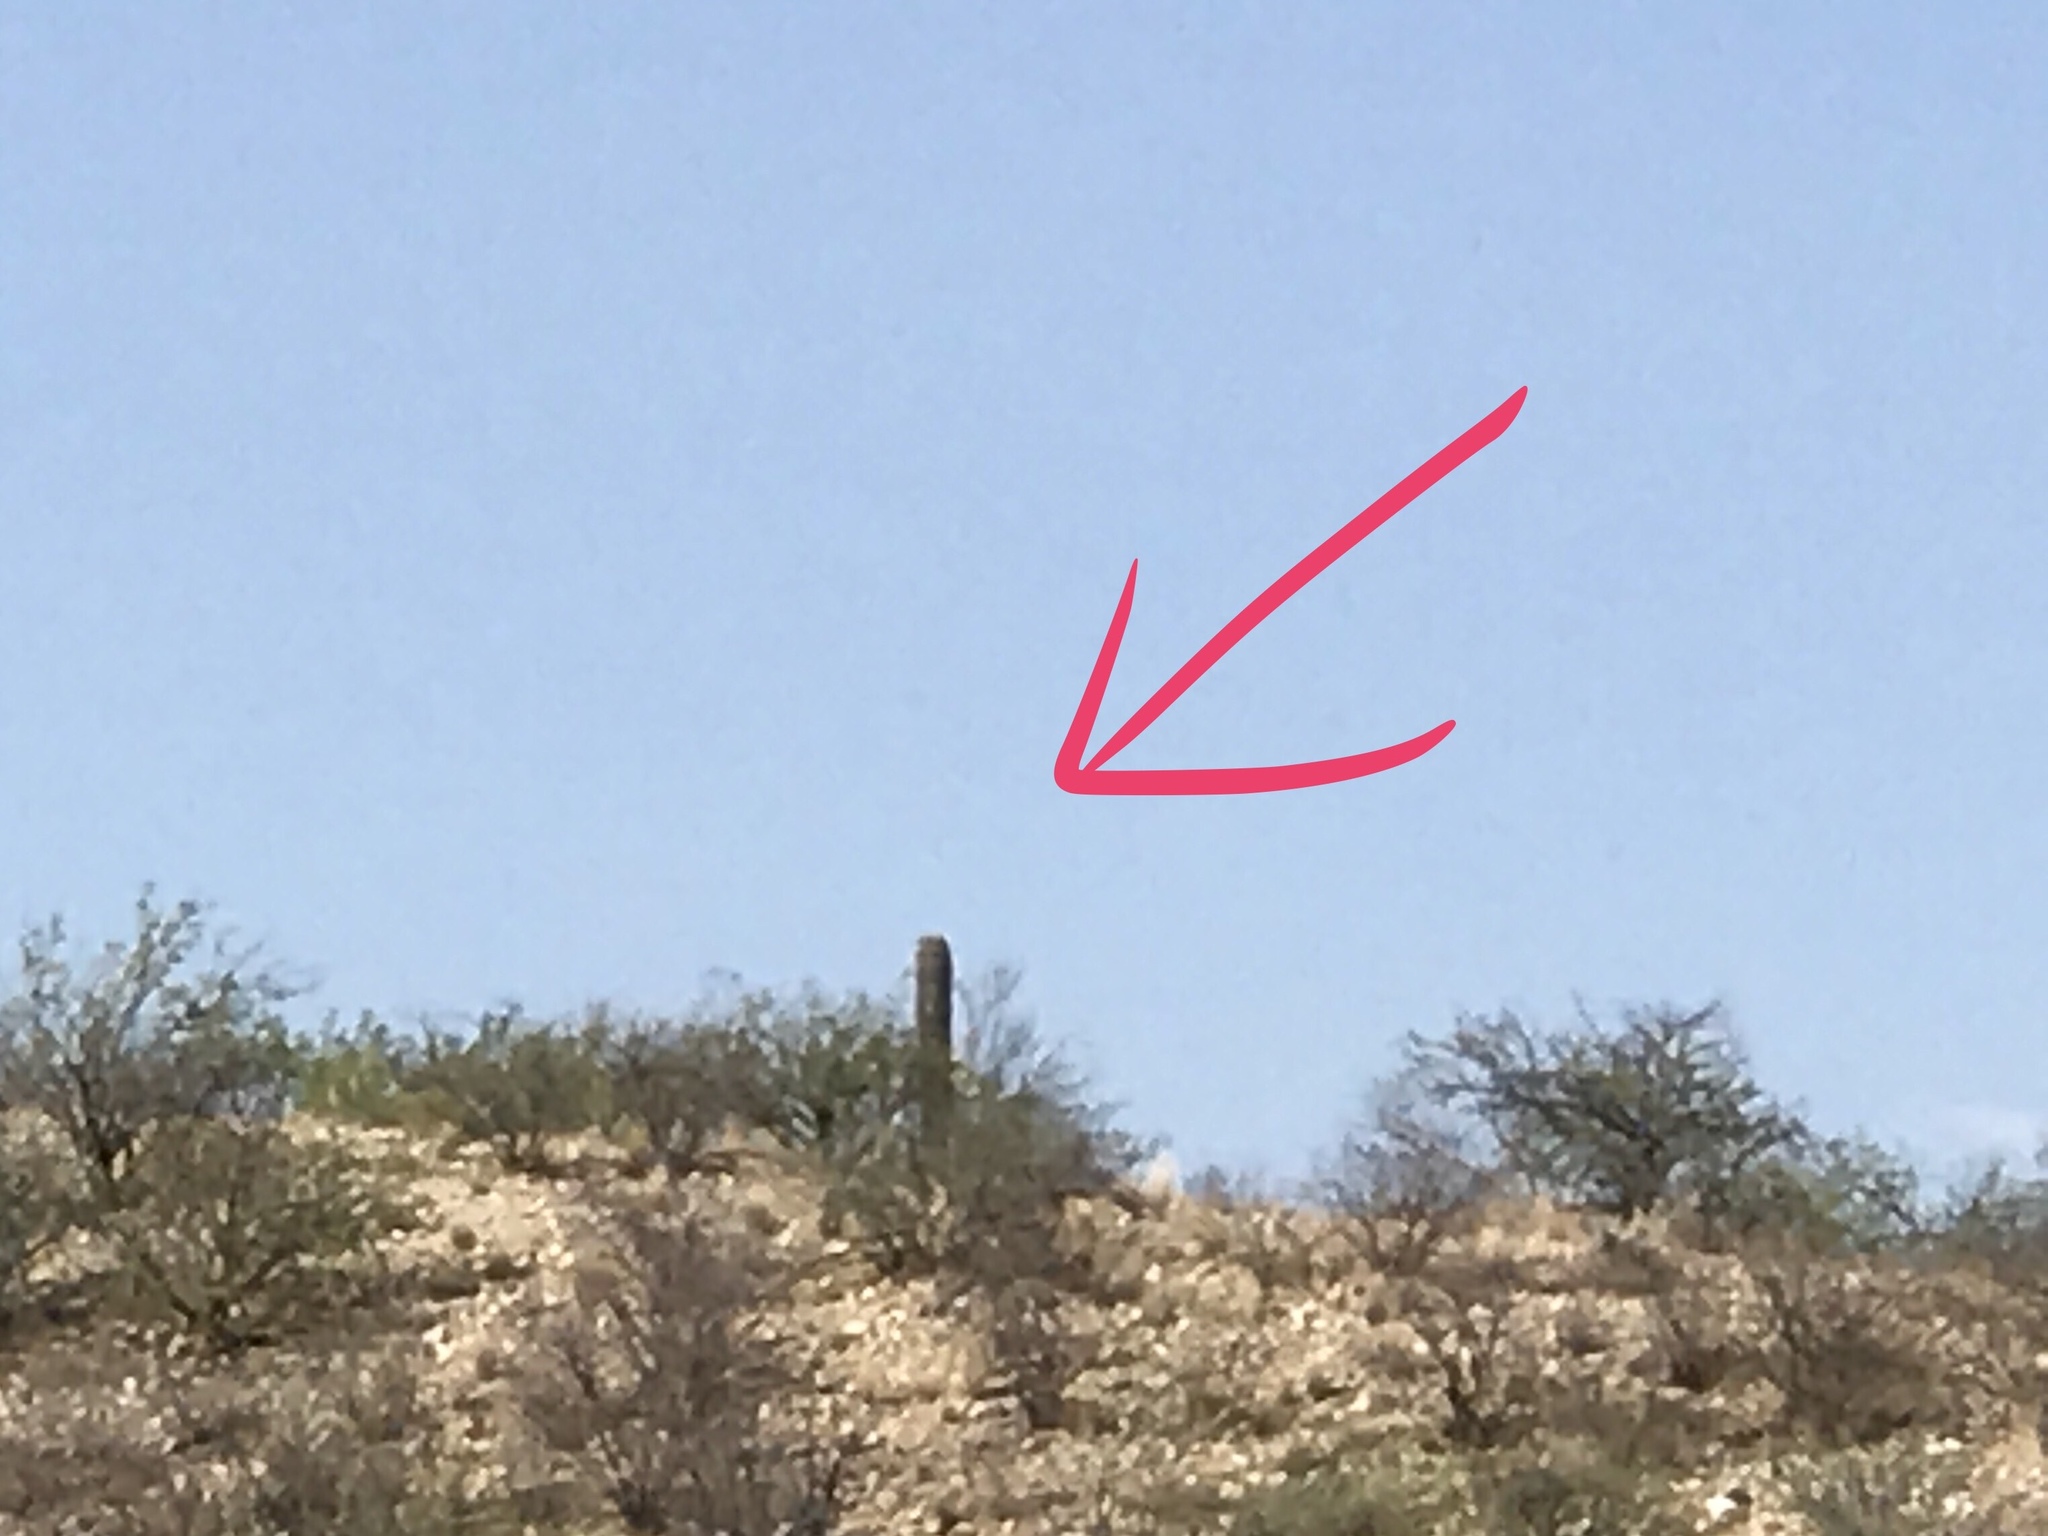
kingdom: Plantae
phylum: Tracheophyta
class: Magnoliopsida
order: Caryophyllales
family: Cactaceae
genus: Carnegiea
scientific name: Carnegiea gigantea
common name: Saguaro
